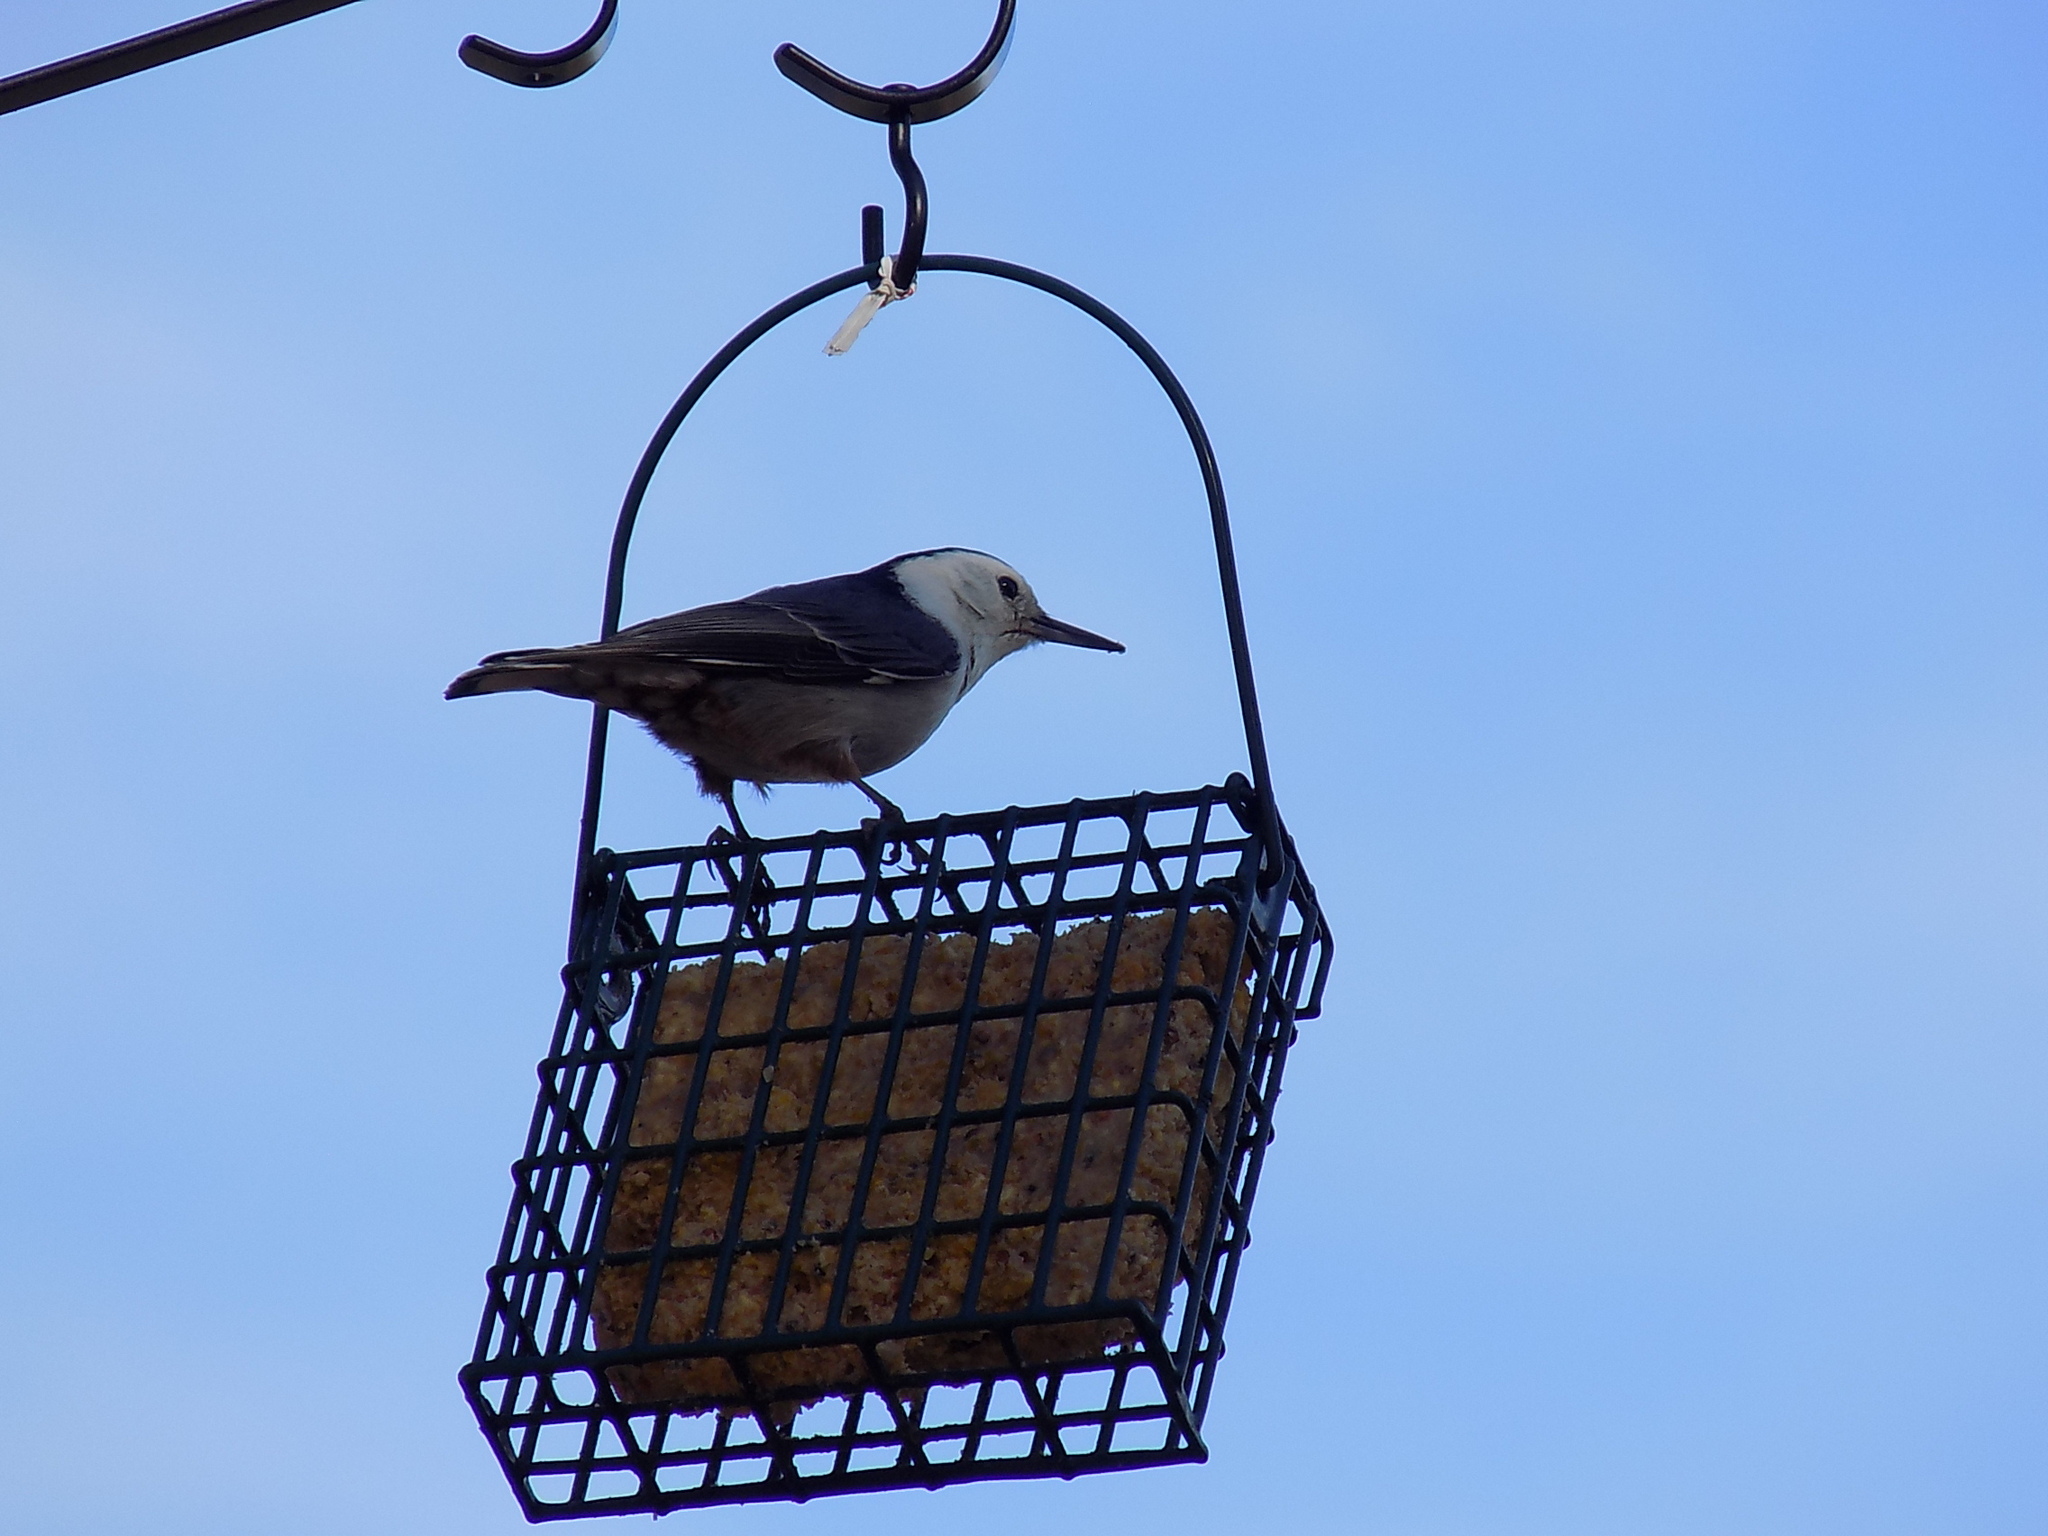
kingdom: Animalia
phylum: Chordata
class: Aves
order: Passeriformes
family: Sittidae
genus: Sitta
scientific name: Sitta carolinensis
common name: White-breasted nuthatch
